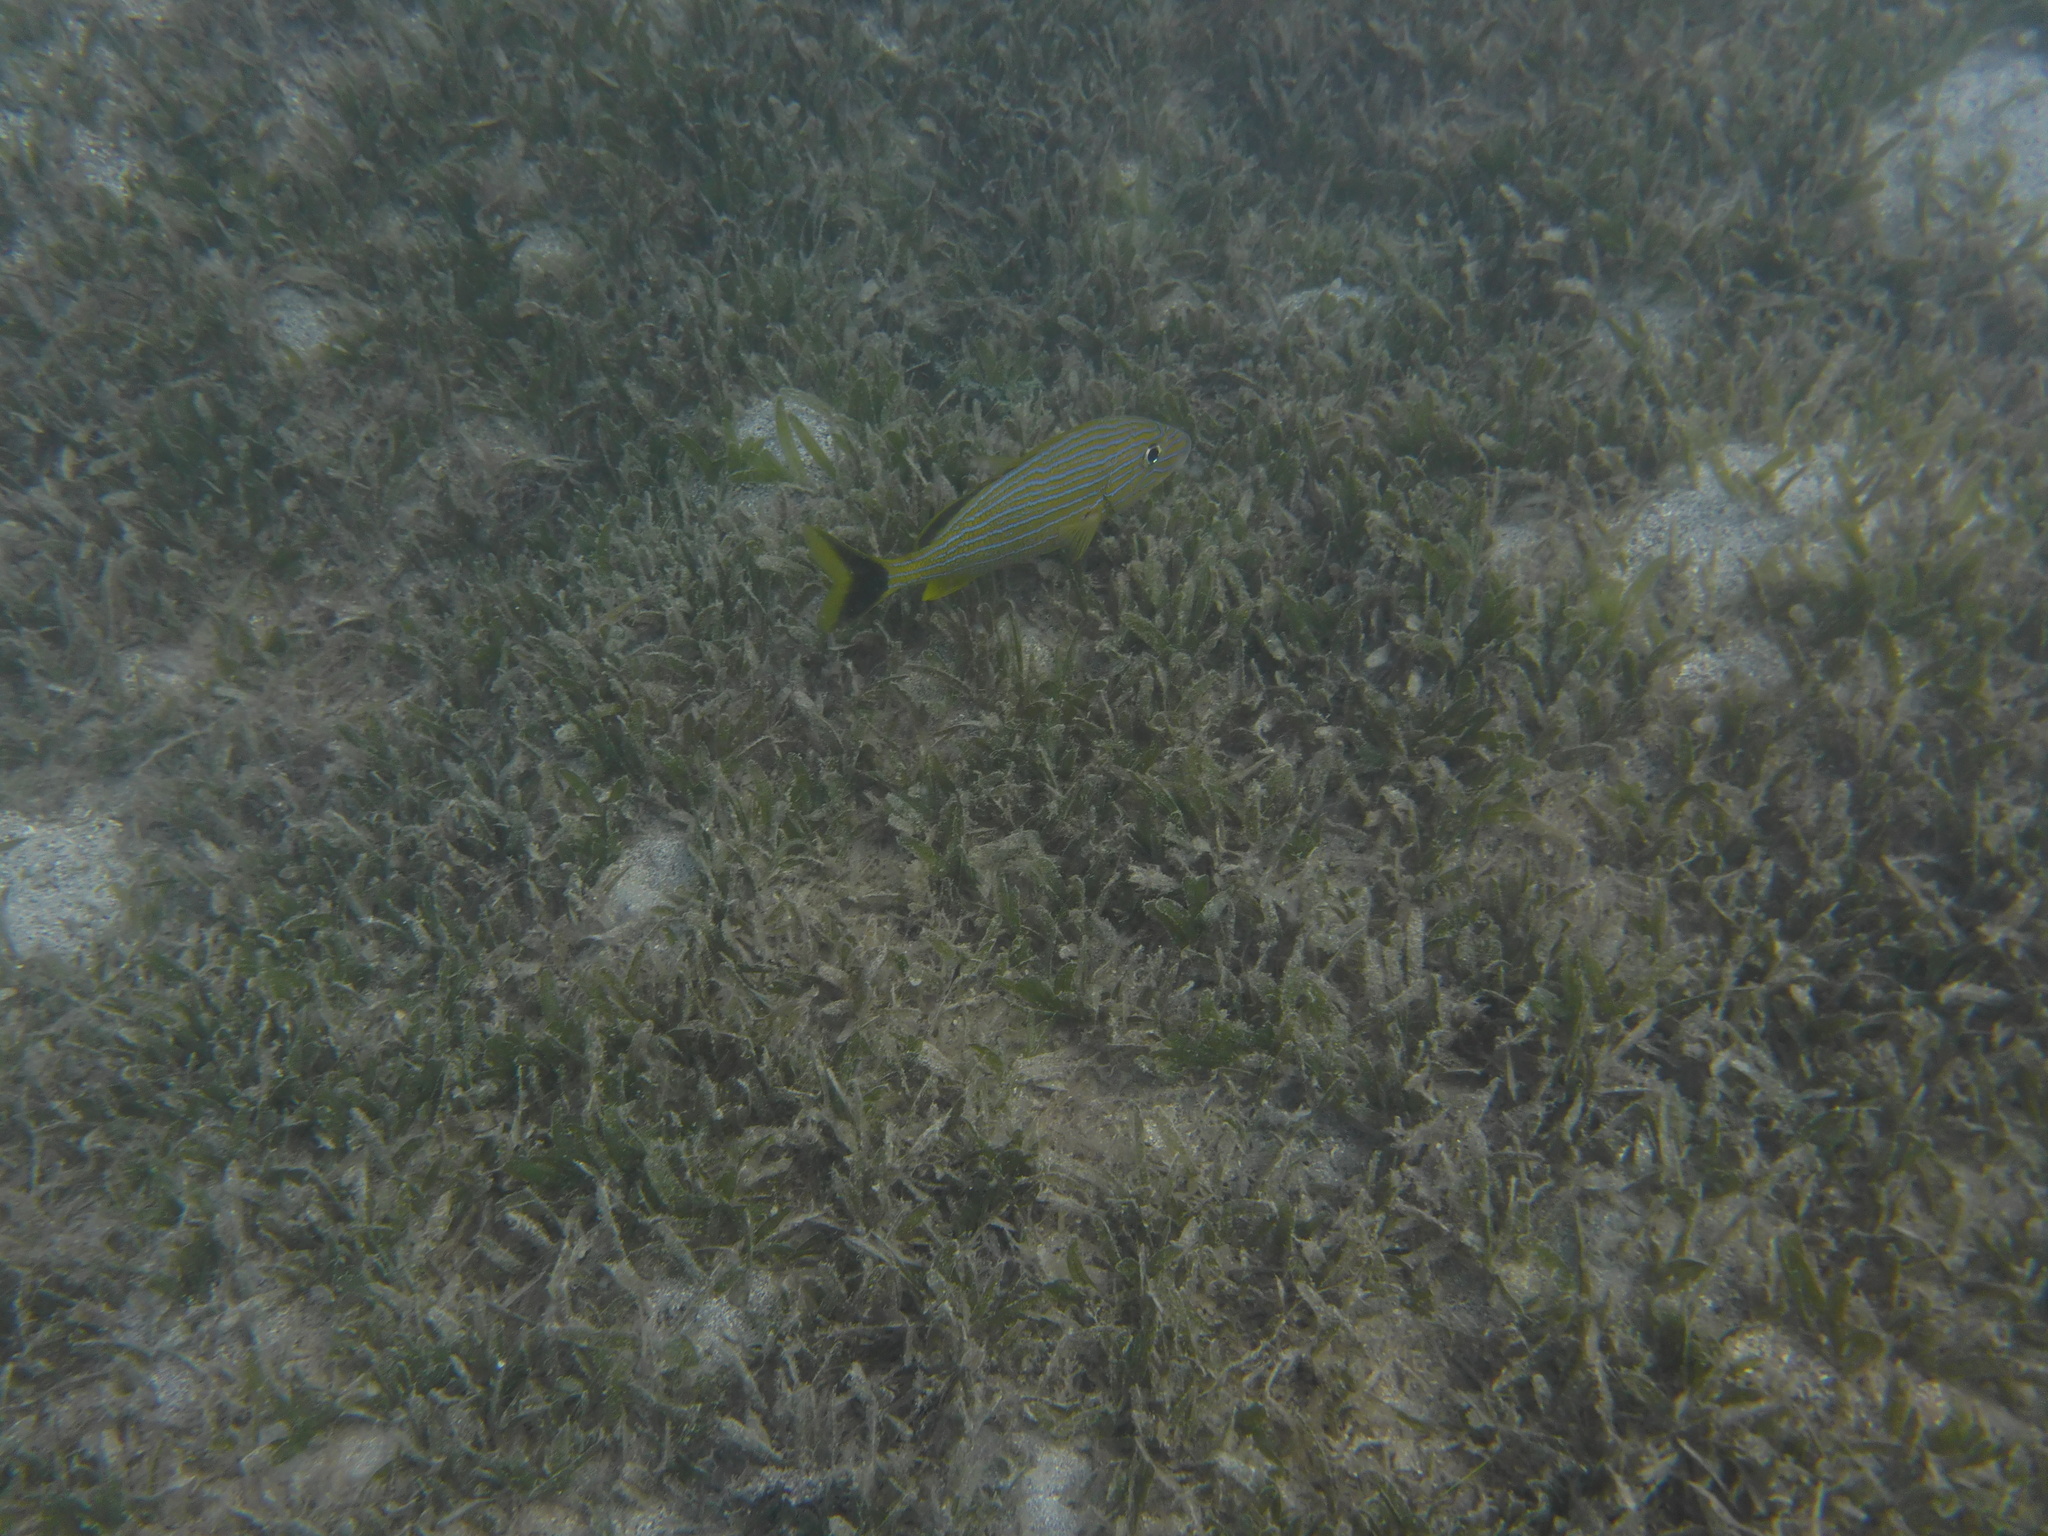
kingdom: Animalia
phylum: Chordata
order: Perciformes
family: Haemulidae
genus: Haemulon
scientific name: Haemulon sciurus
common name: Bluestriped grunt
